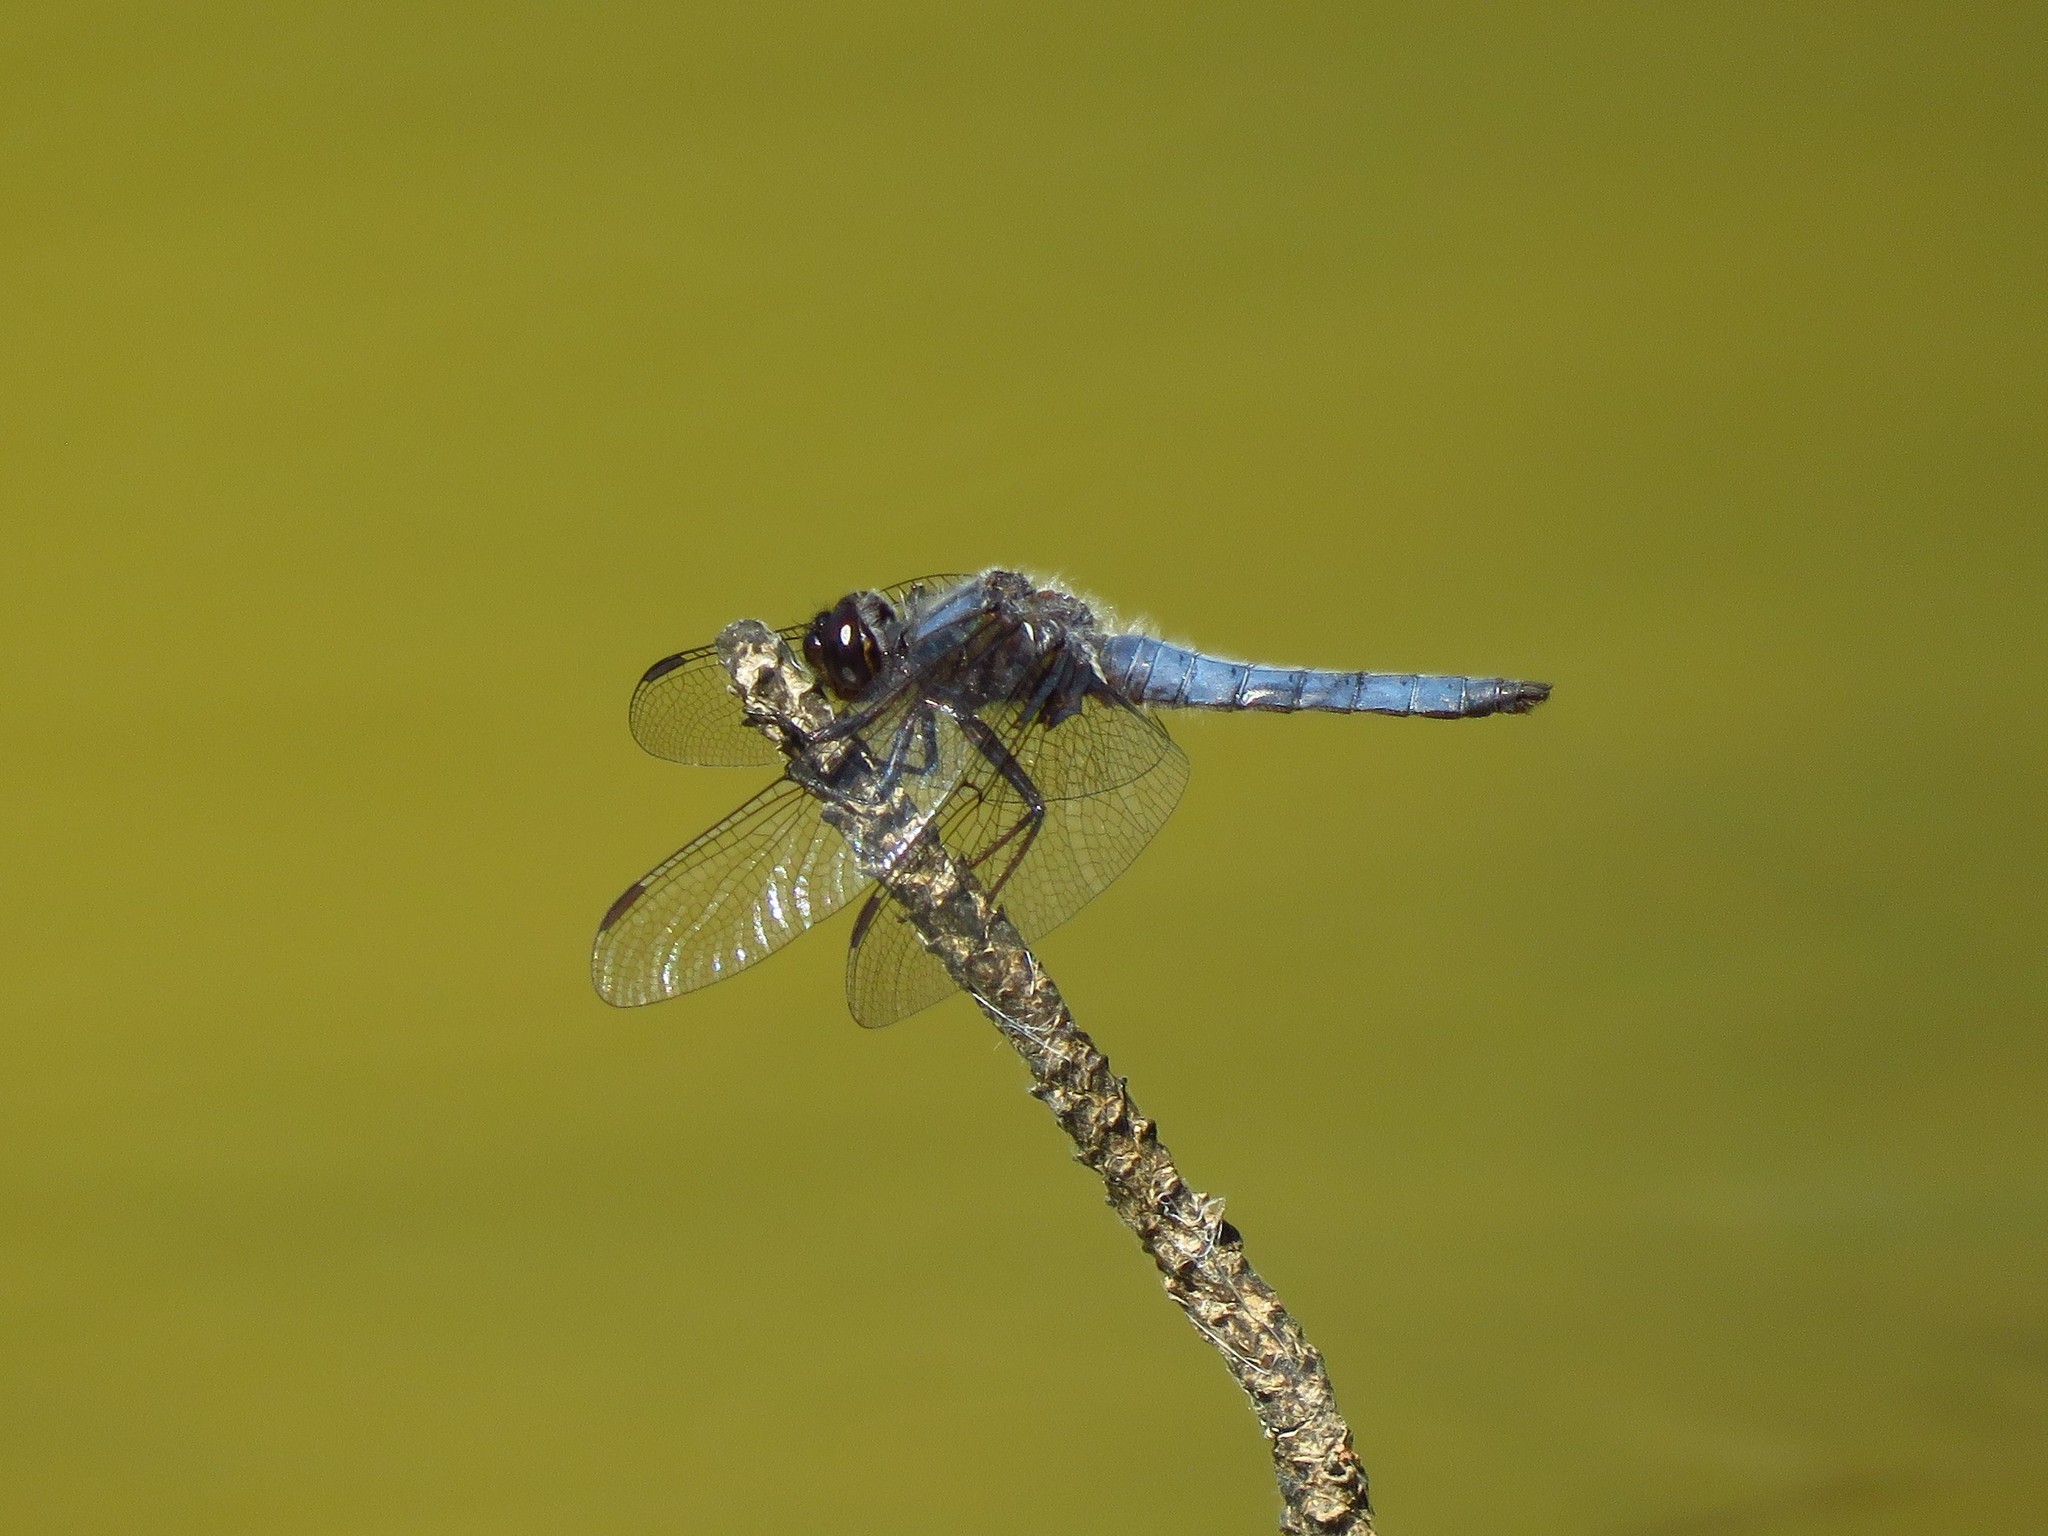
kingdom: Animalia
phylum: Arthropoda
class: Insecta
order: Odonata
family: Libellulidae
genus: Ladona
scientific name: Ladona deplanata
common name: Blue corporal
